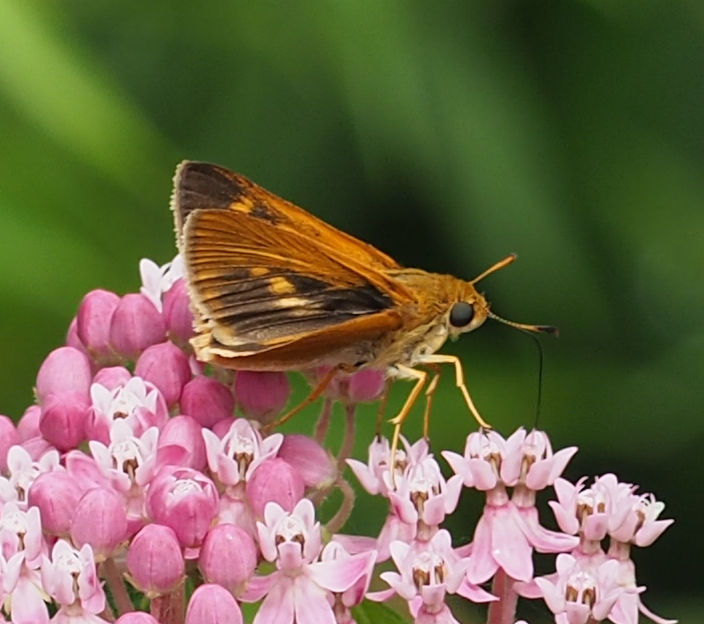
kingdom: Animalia
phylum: Arthropoda
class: Insecta
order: Lepidoptera
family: Hesperiidae
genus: Euphyes
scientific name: Euphyes dion
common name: Dion skipper
